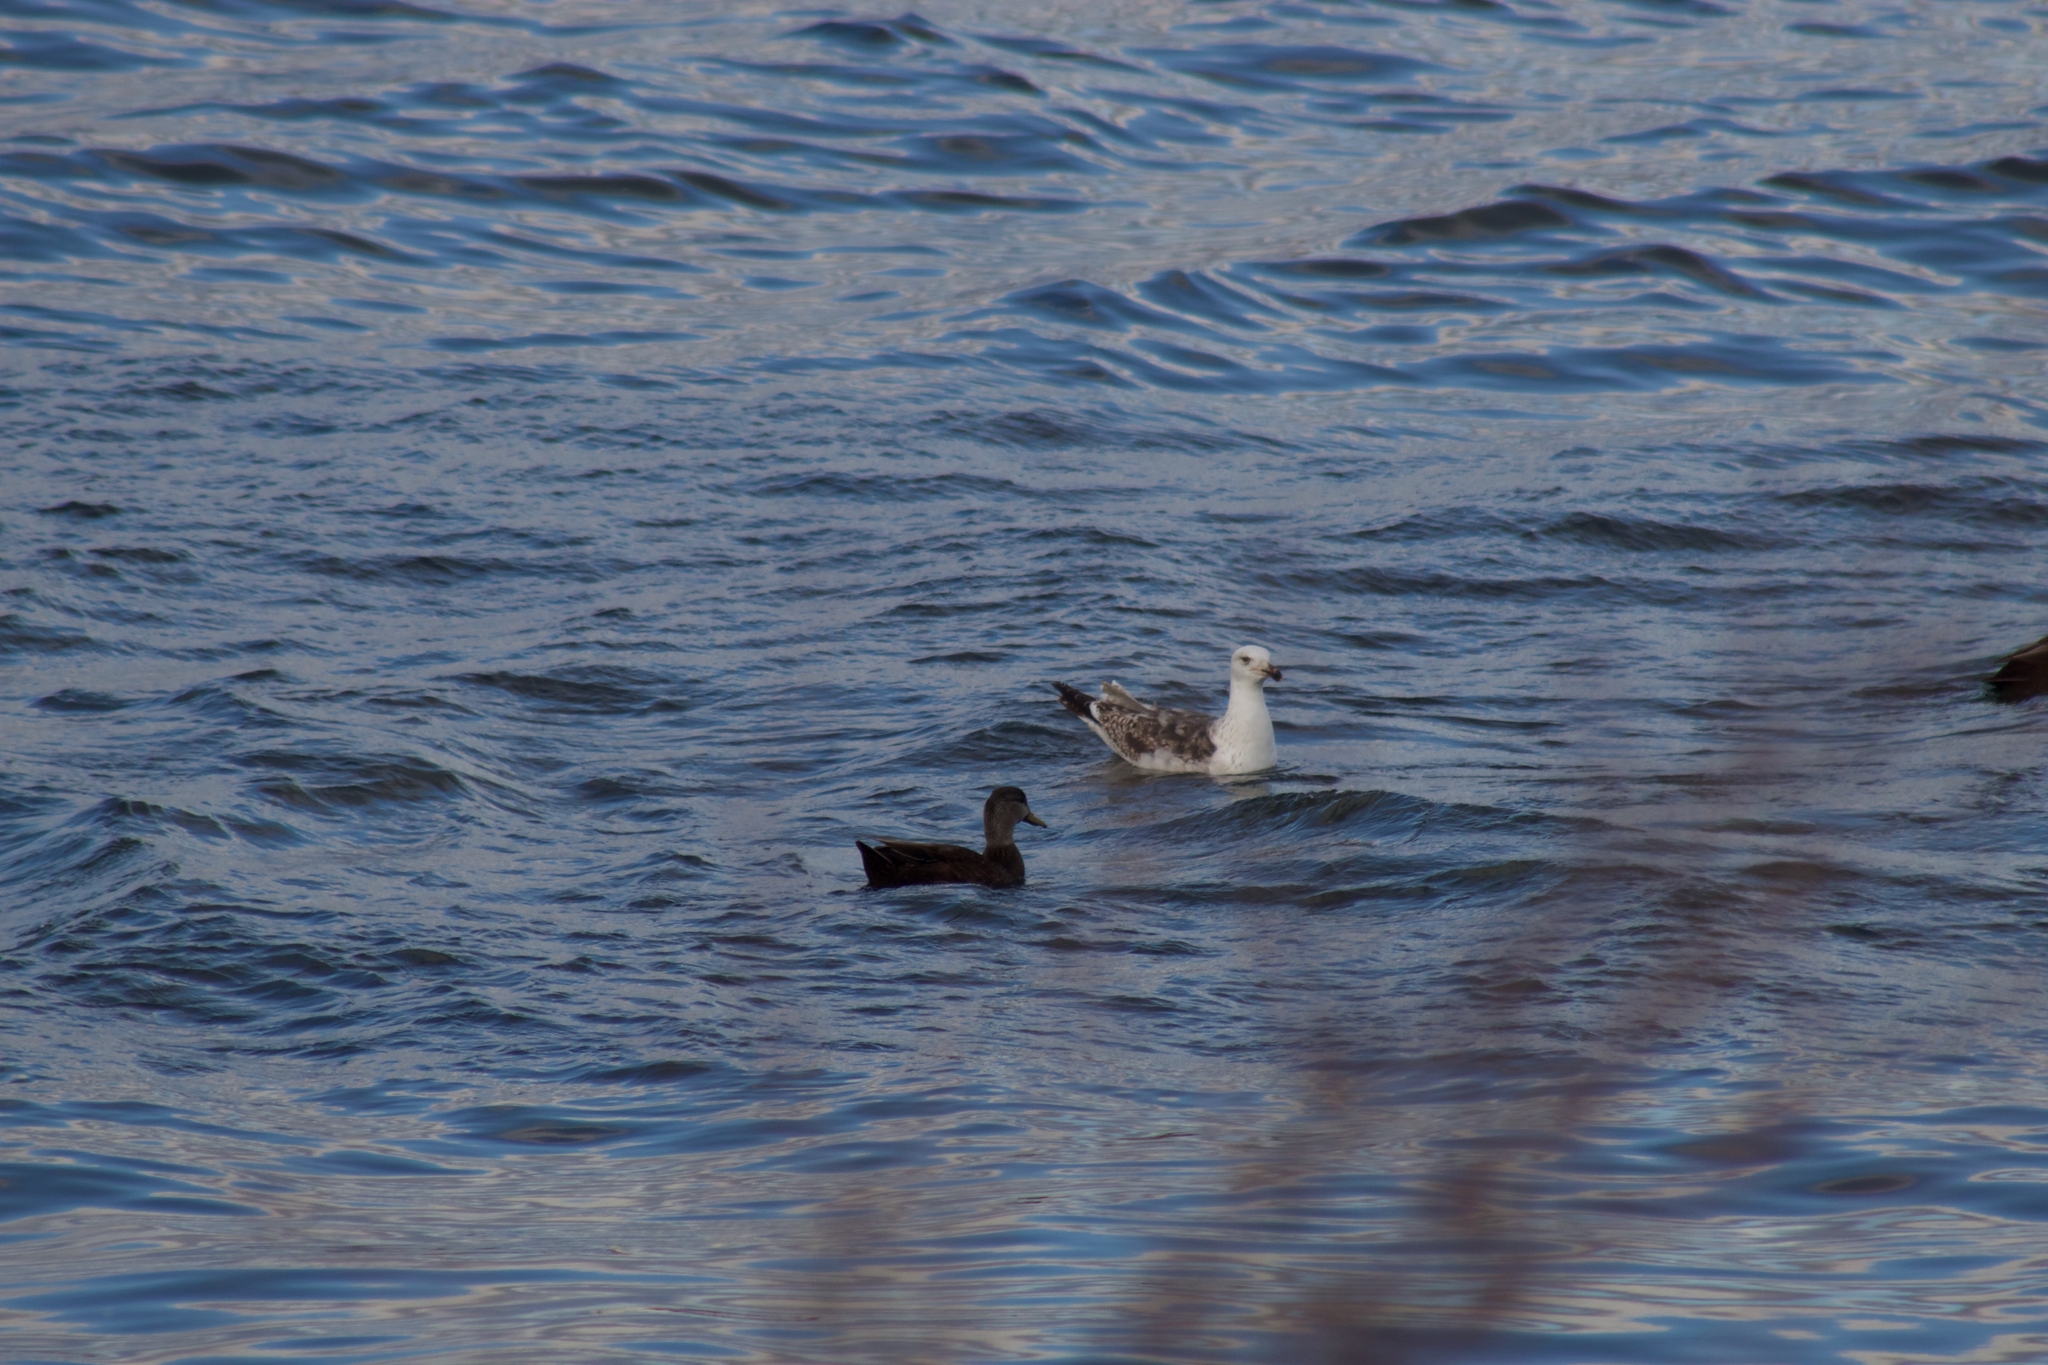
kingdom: Animalia
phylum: Chordata
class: Aves
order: Charadriiformes
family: Laridae
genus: Larus
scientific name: Larus marinus
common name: Great black-backed gull
